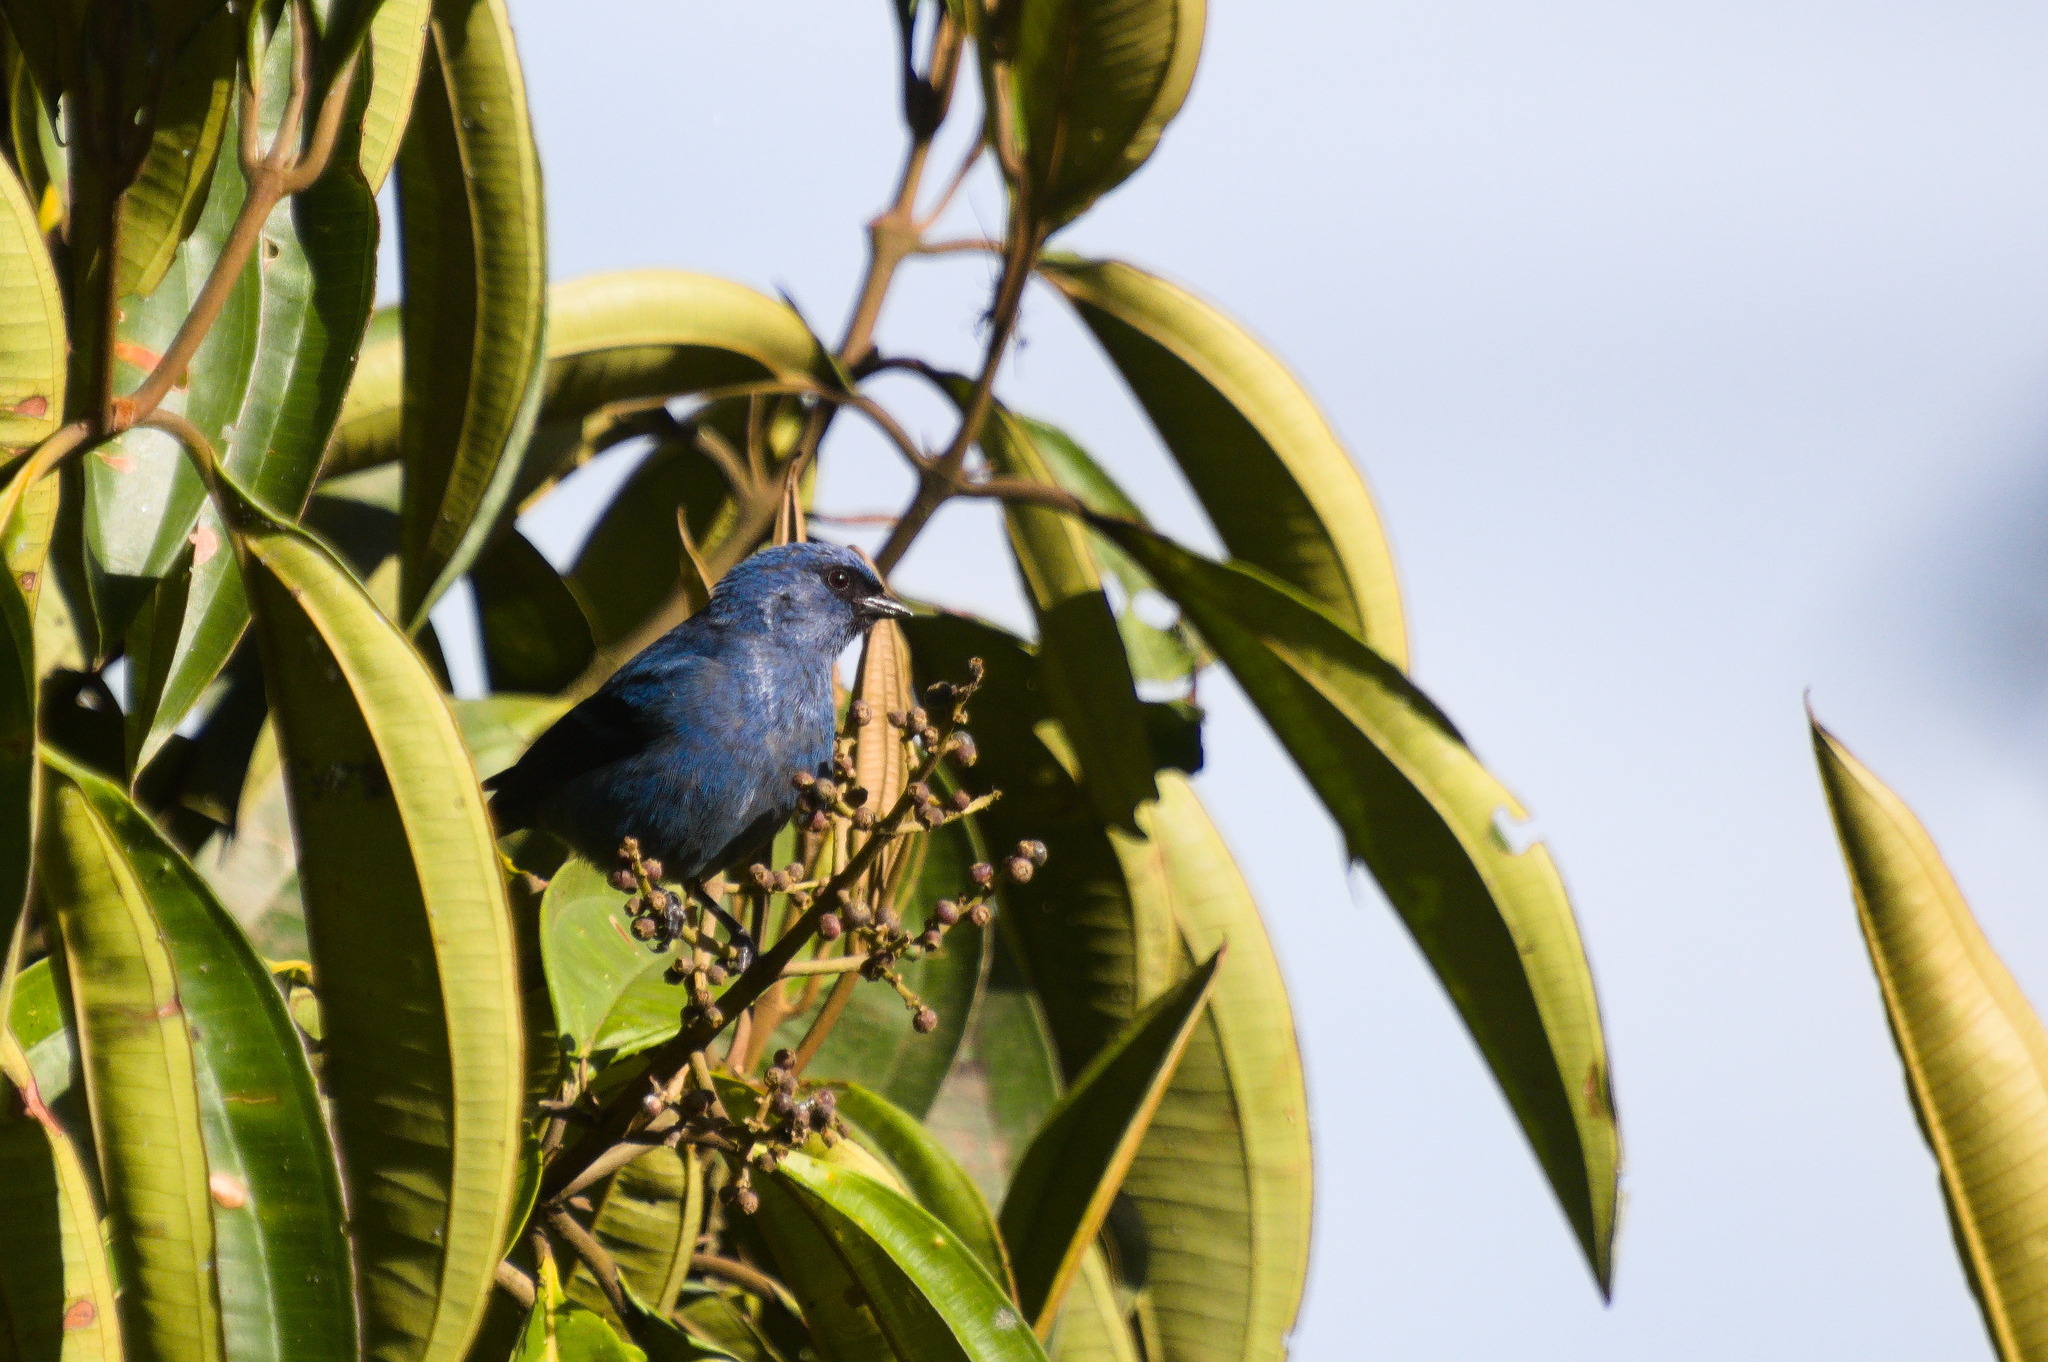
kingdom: Animalia
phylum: Chordata
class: Aves
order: Passeriformes
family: Thraupidae
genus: Tangara
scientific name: Tangara vassorii
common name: Blue-and-black tanager
